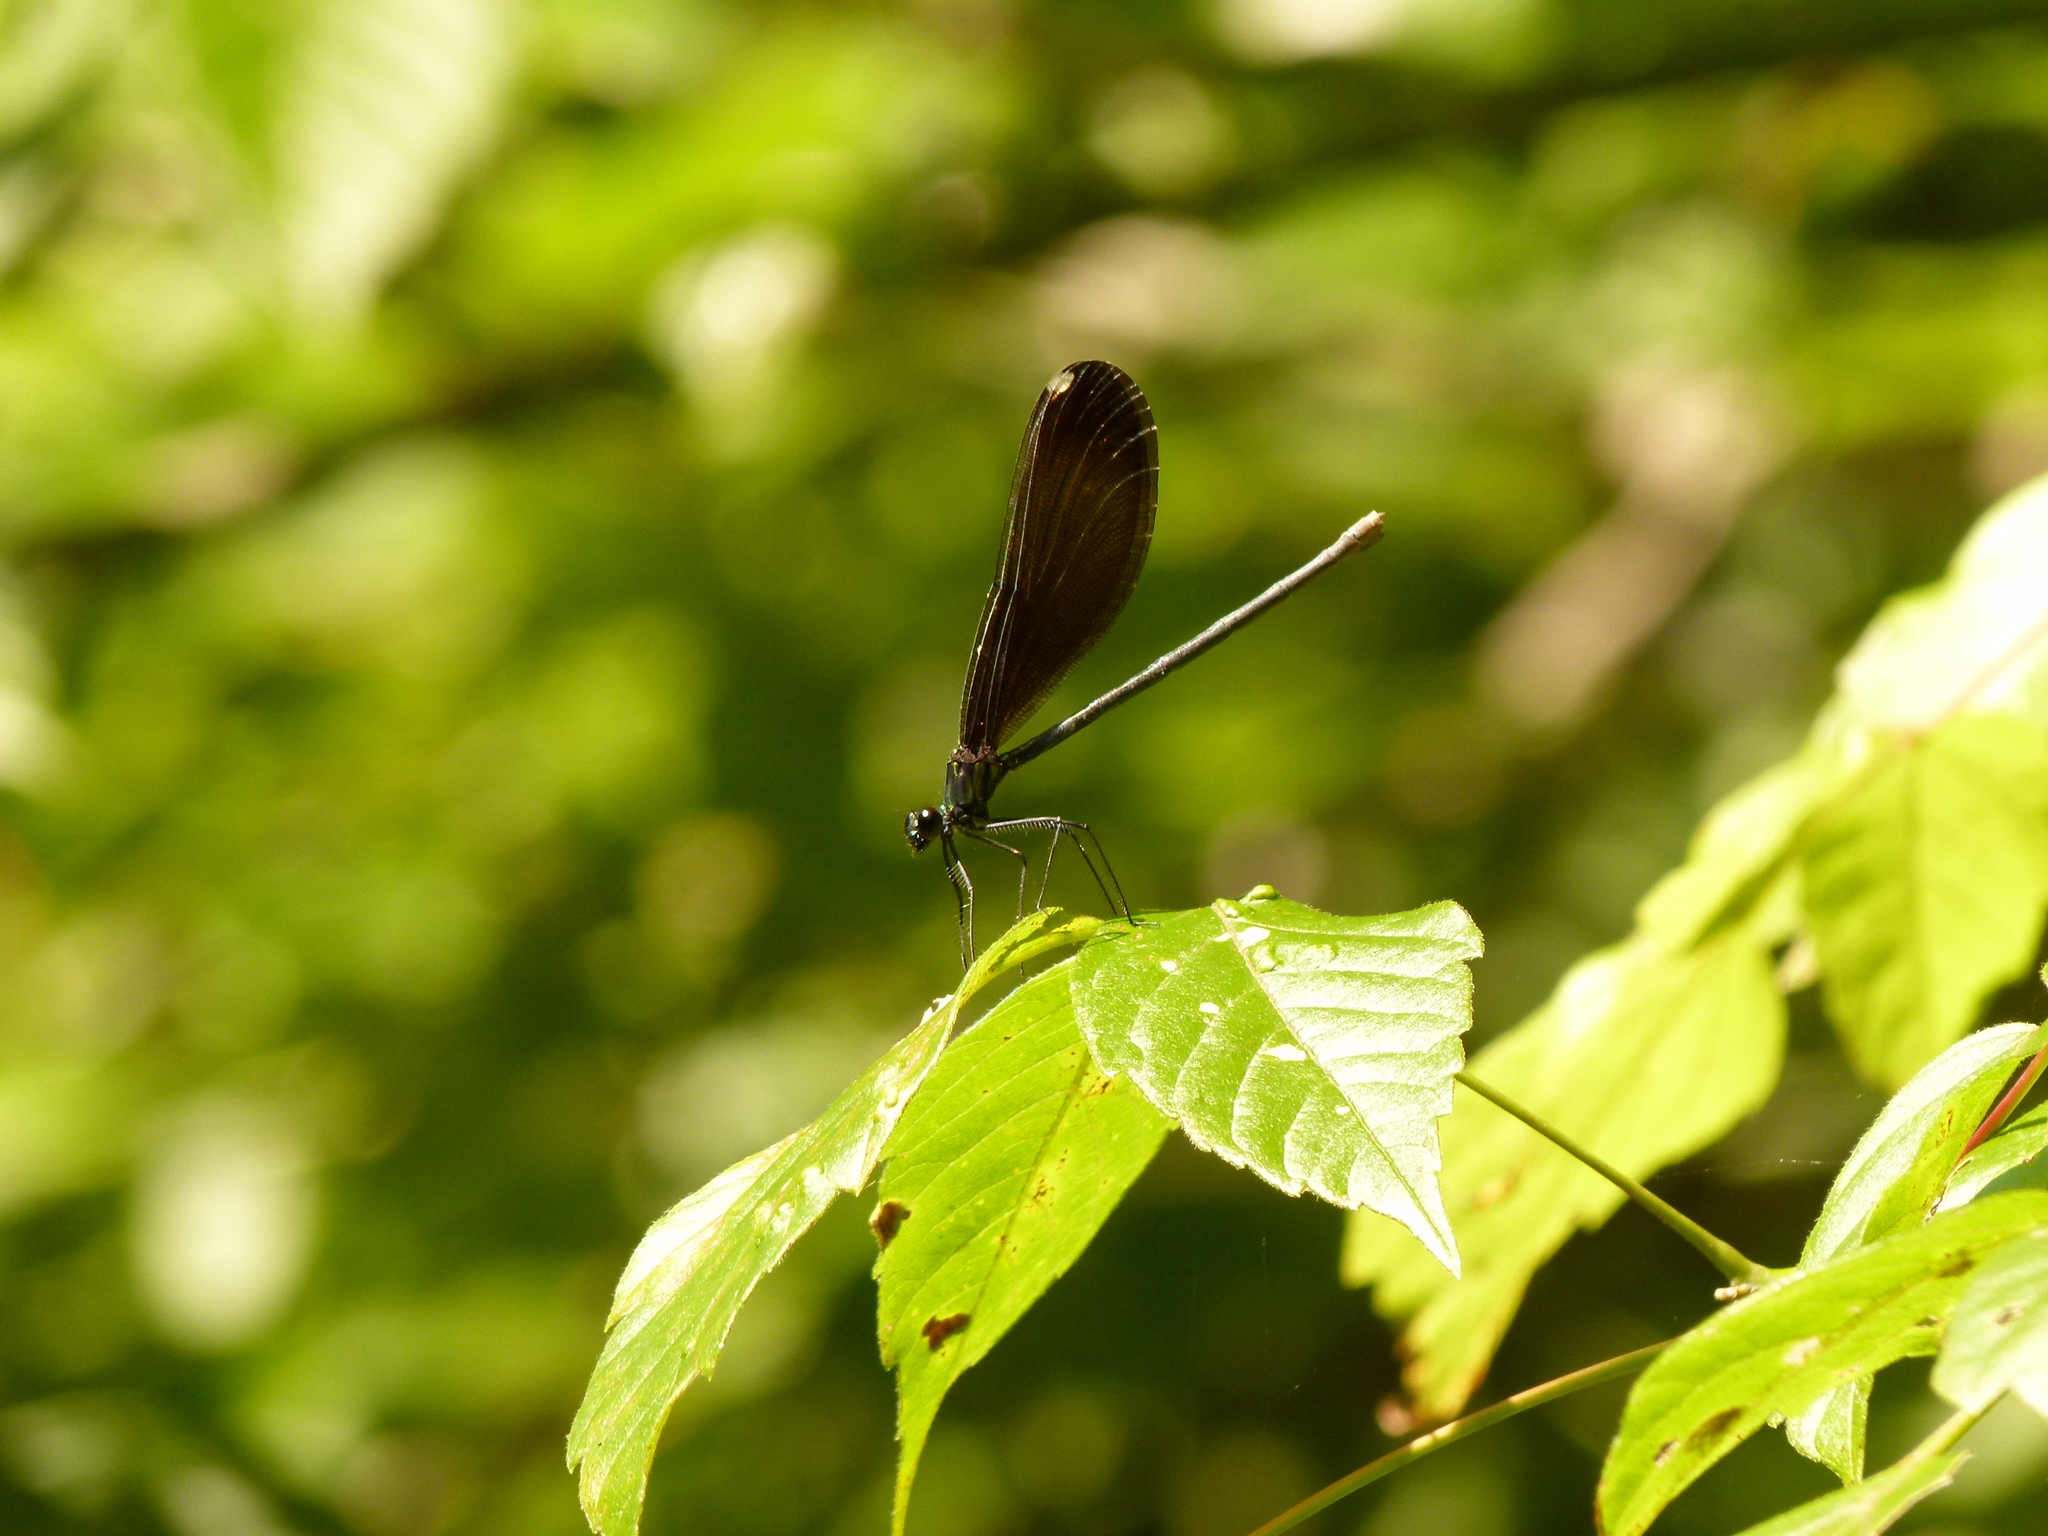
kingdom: Animalia
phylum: Arthropoda
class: Insecta
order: Odonata
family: Calopterygidae
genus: Calopteryx
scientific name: Calopteryx maculata
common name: Ebony jewelwing
